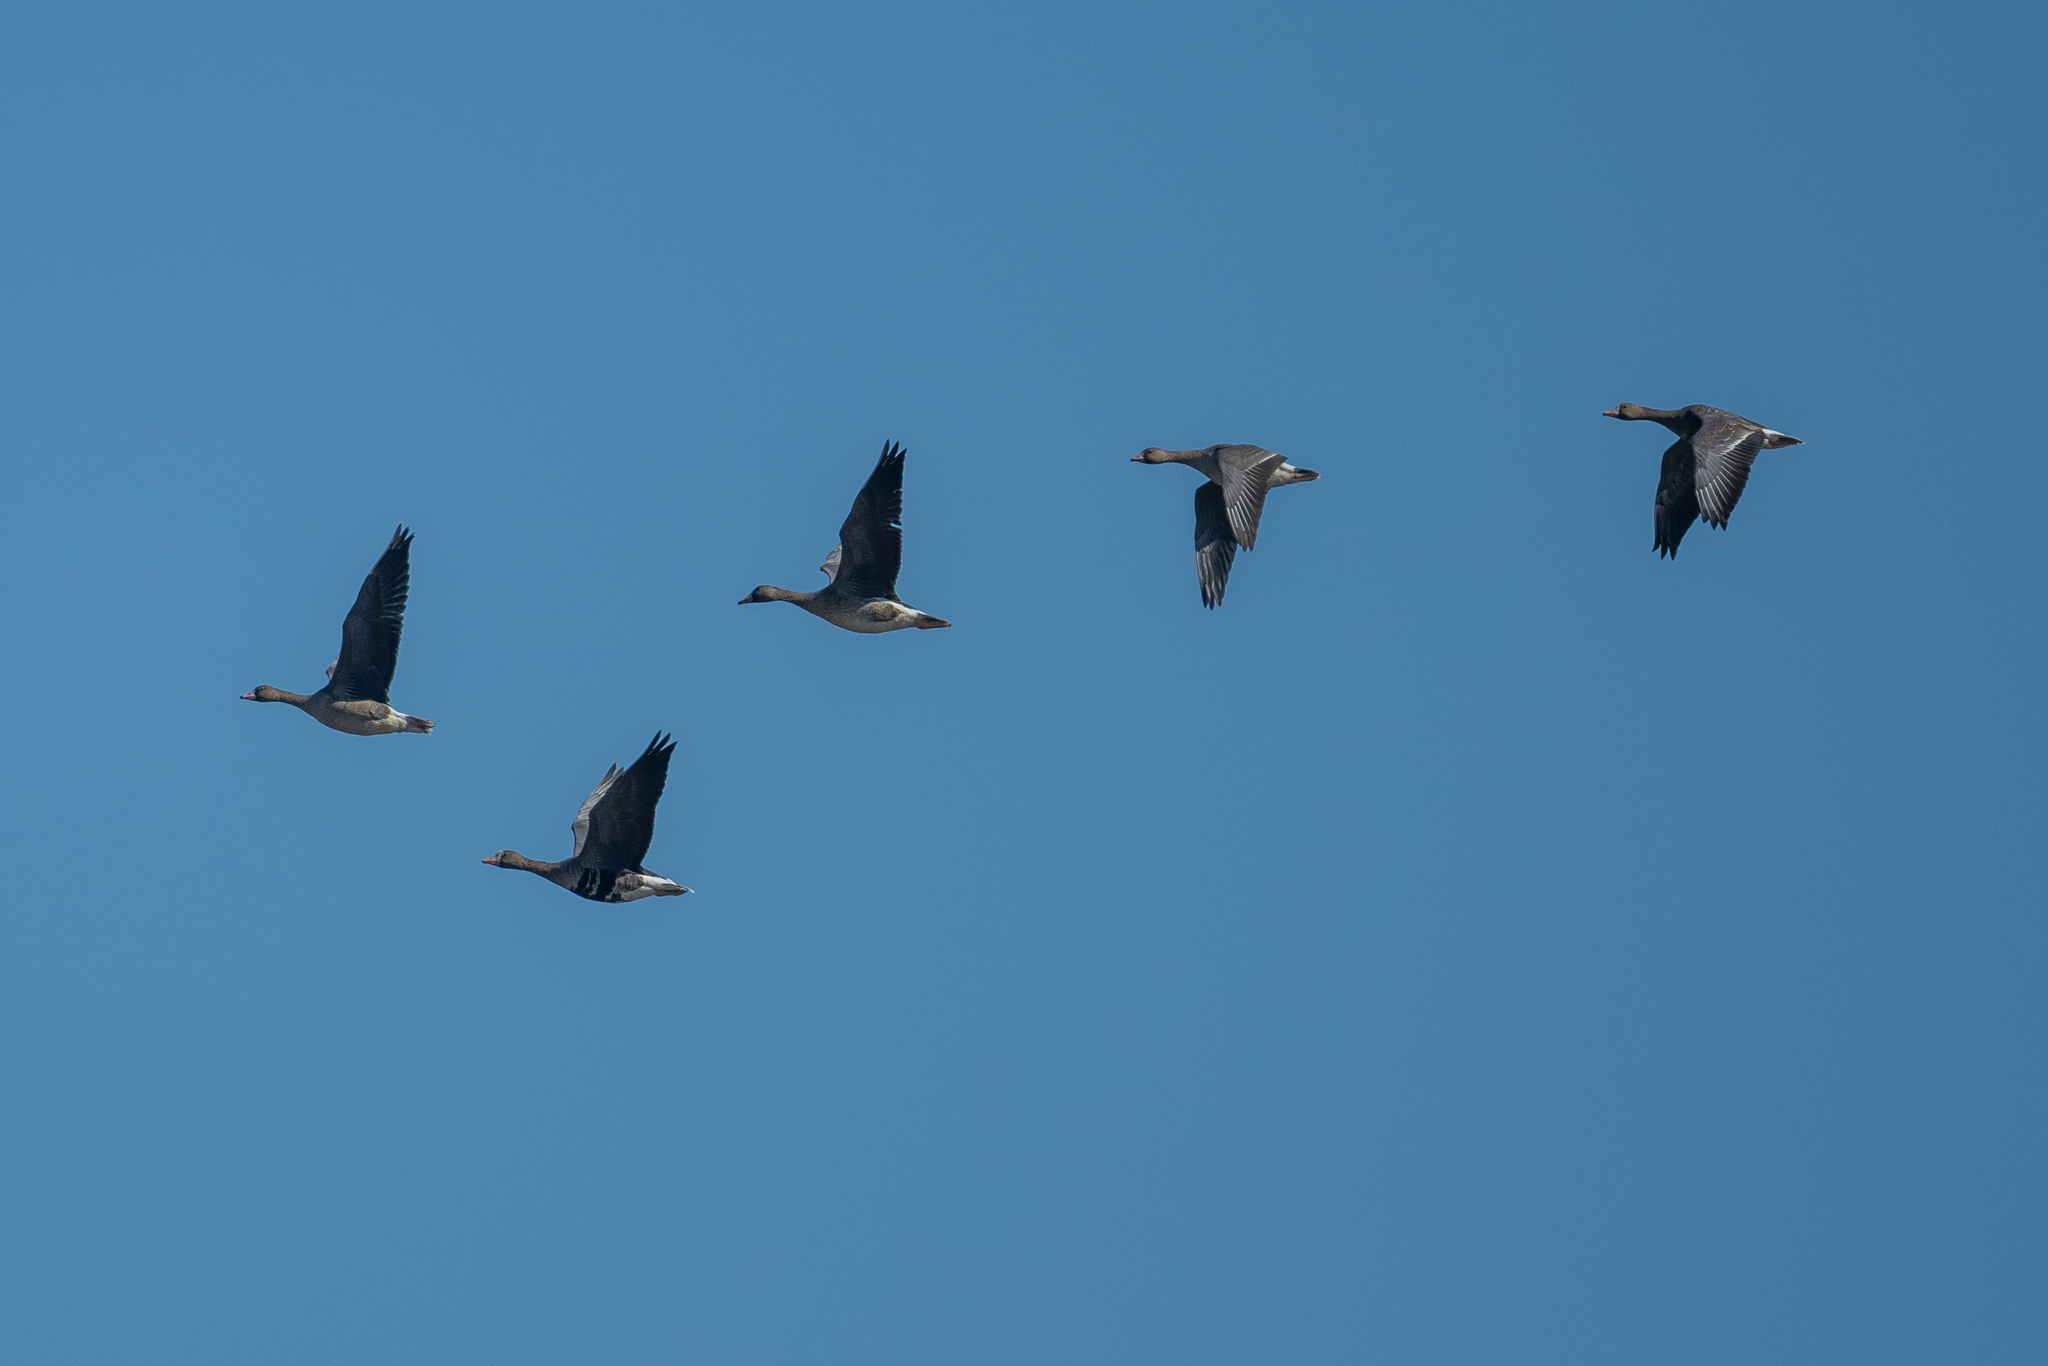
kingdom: Animalia
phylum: Chordata
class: Aves
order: Anseriformes
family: Anatidae
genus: Anser
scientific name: Anser albifrons
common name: Greater white-fronted goose
